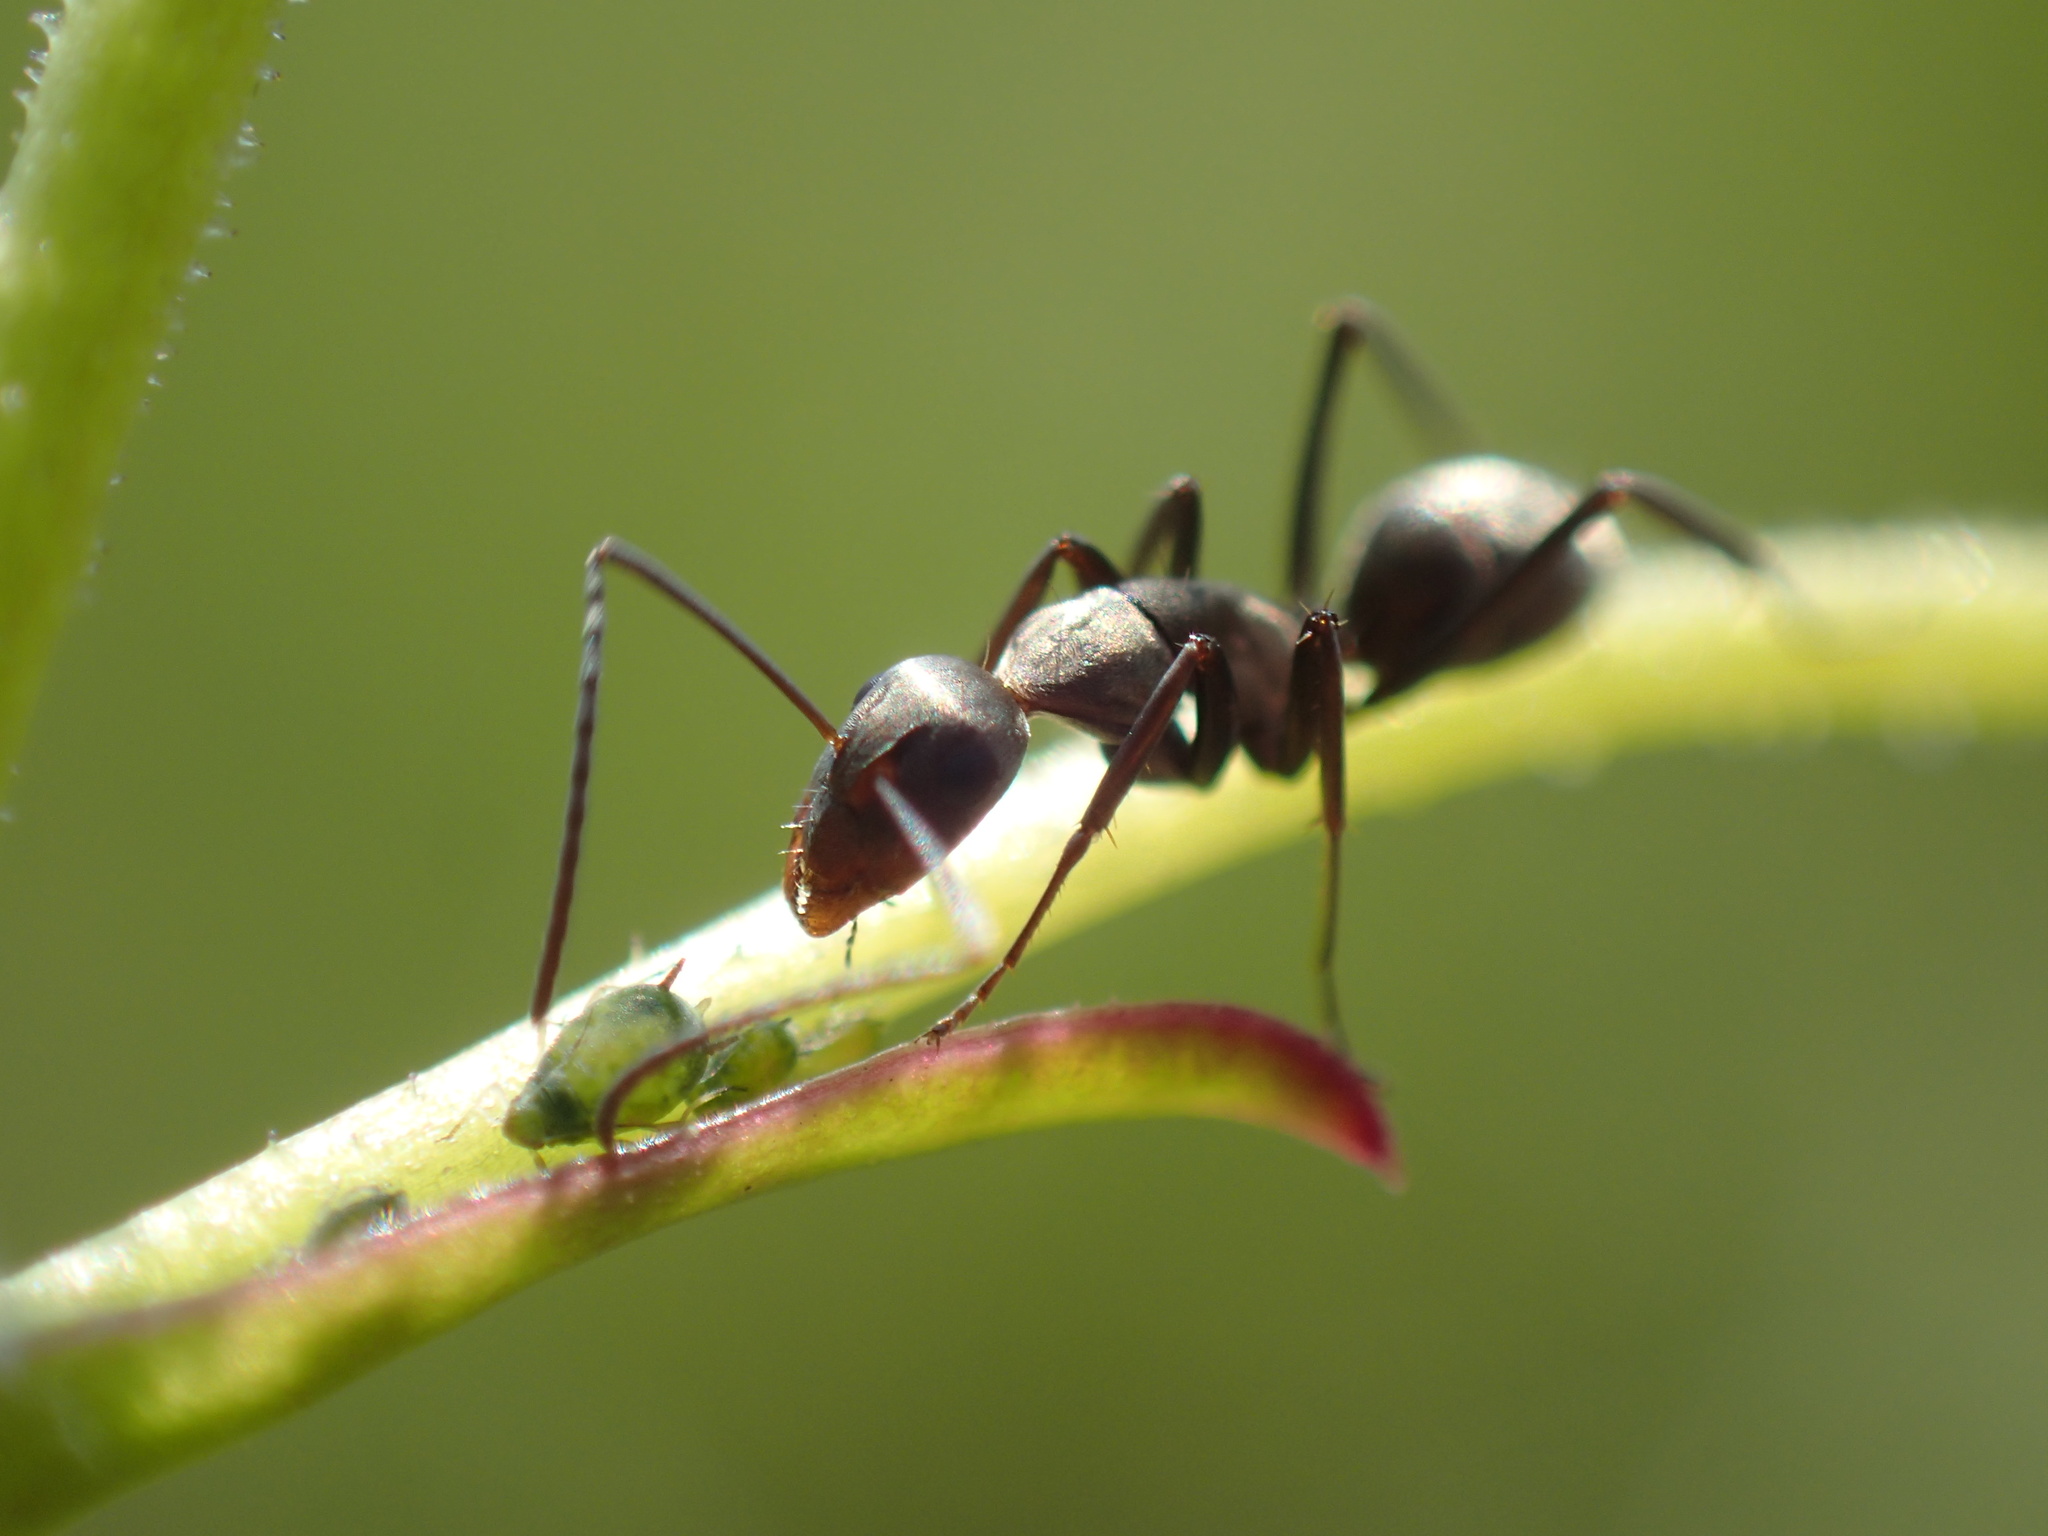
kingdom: Animalia
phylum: Arthropoda
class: Insecta
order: Hymenoptera
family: Formicidae
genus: Camponotus
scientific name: Camponotus vestitus
